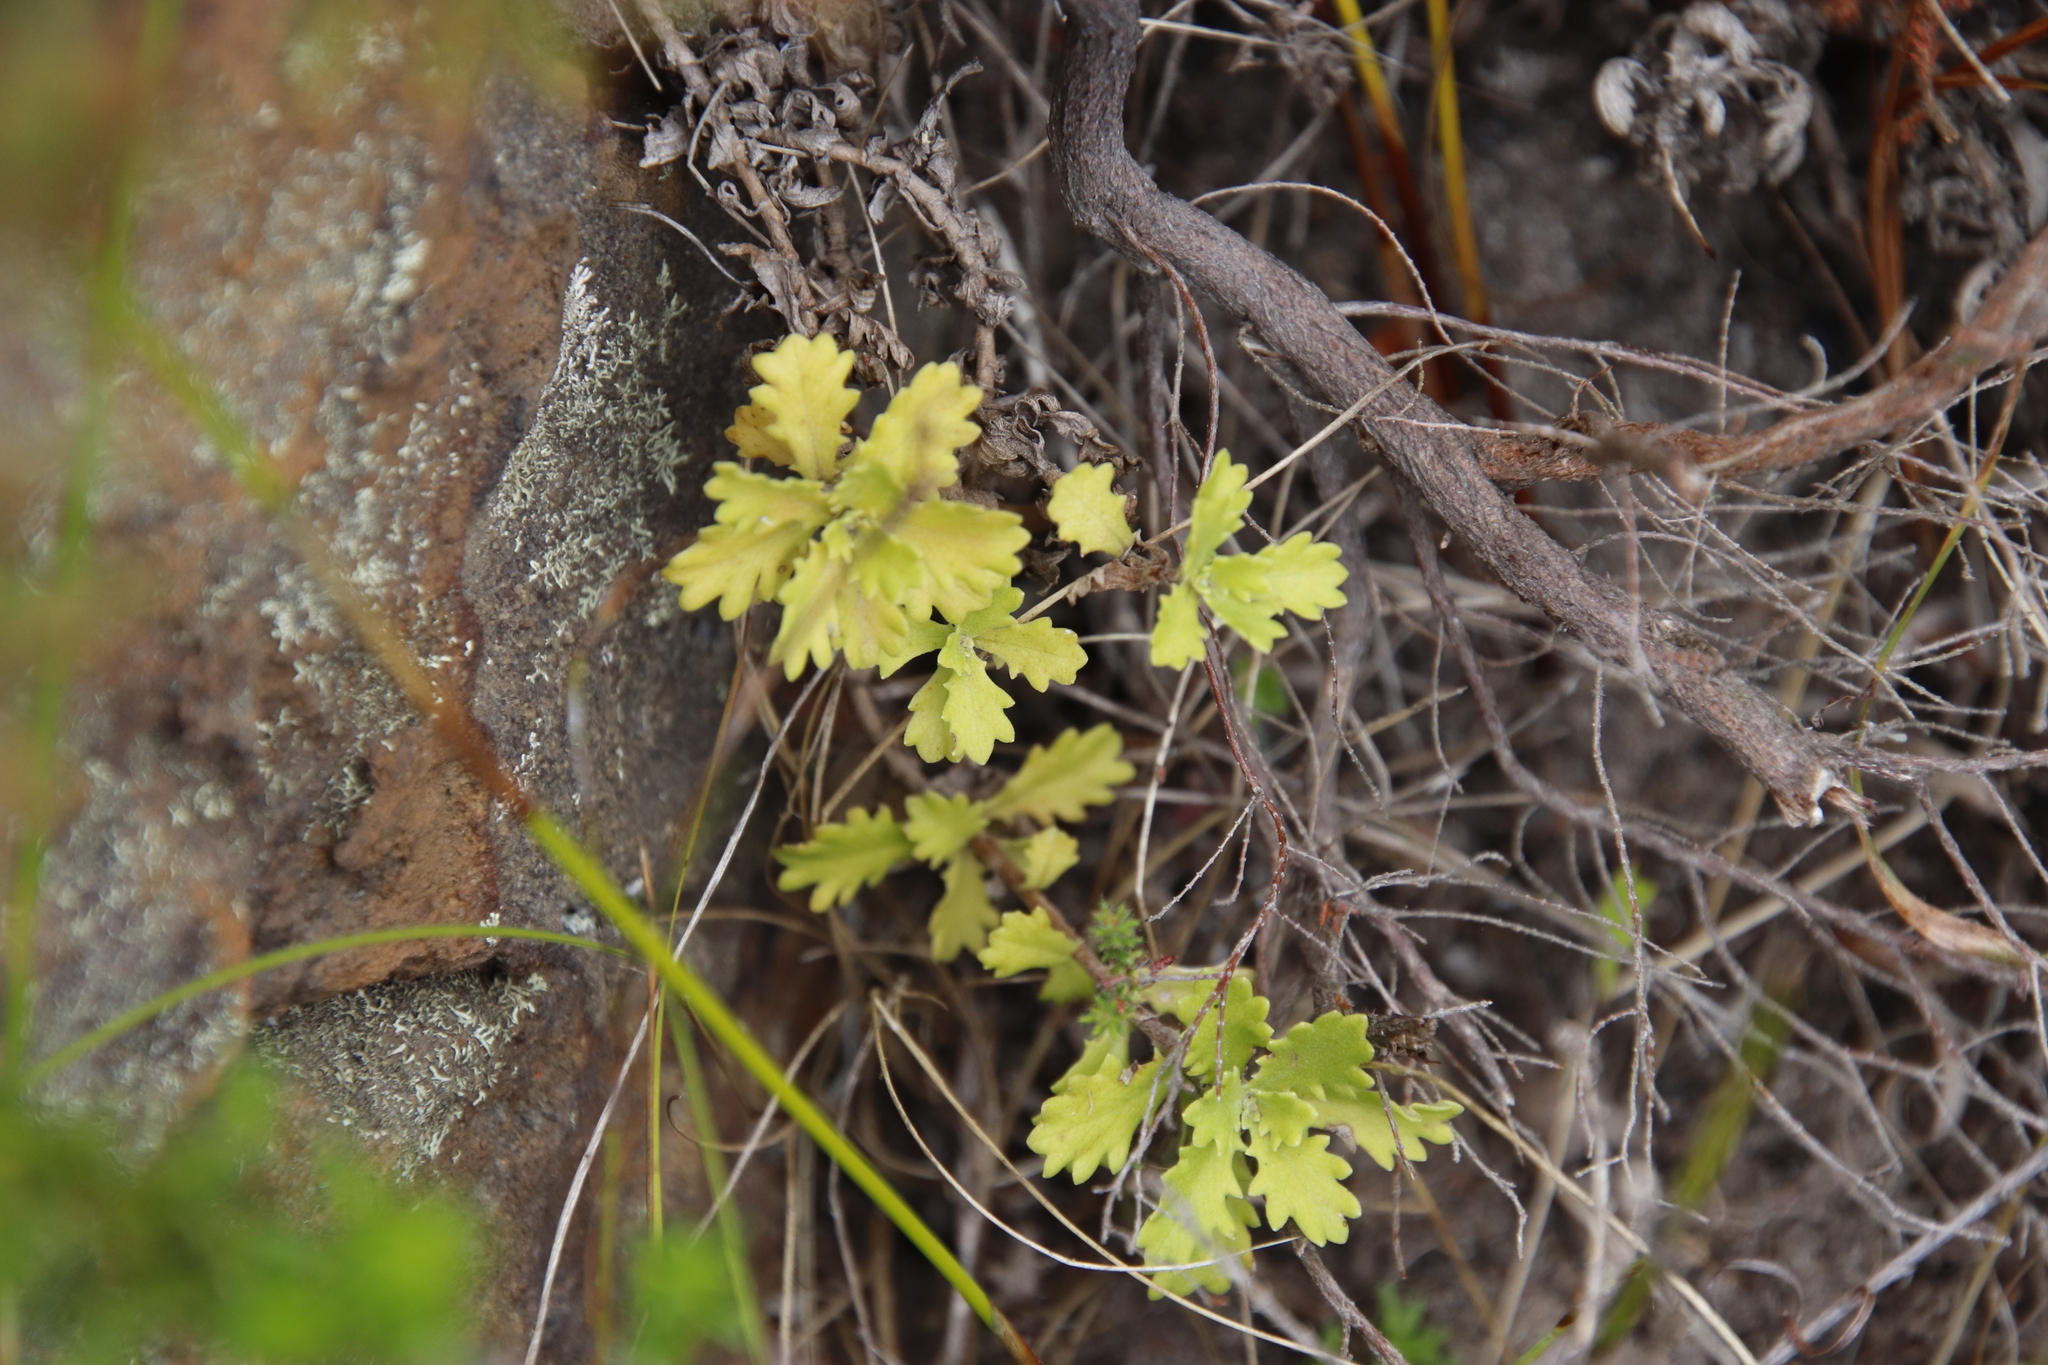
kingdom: Plantae
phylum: Tracheophyta
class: Magnoliopsida
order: Asterales
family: Asteraceae
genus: Osmitopsis
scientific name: Osmitopsis dentata
